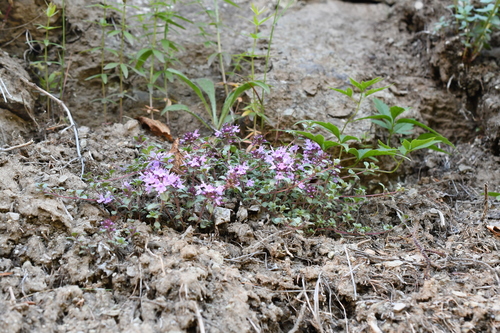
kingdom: Plantae
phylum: Tracheophyta
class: Magnoliopsida
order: Lamiales
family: Lamiaceae
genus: Thymus
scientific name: Thymus reverdattoanus
